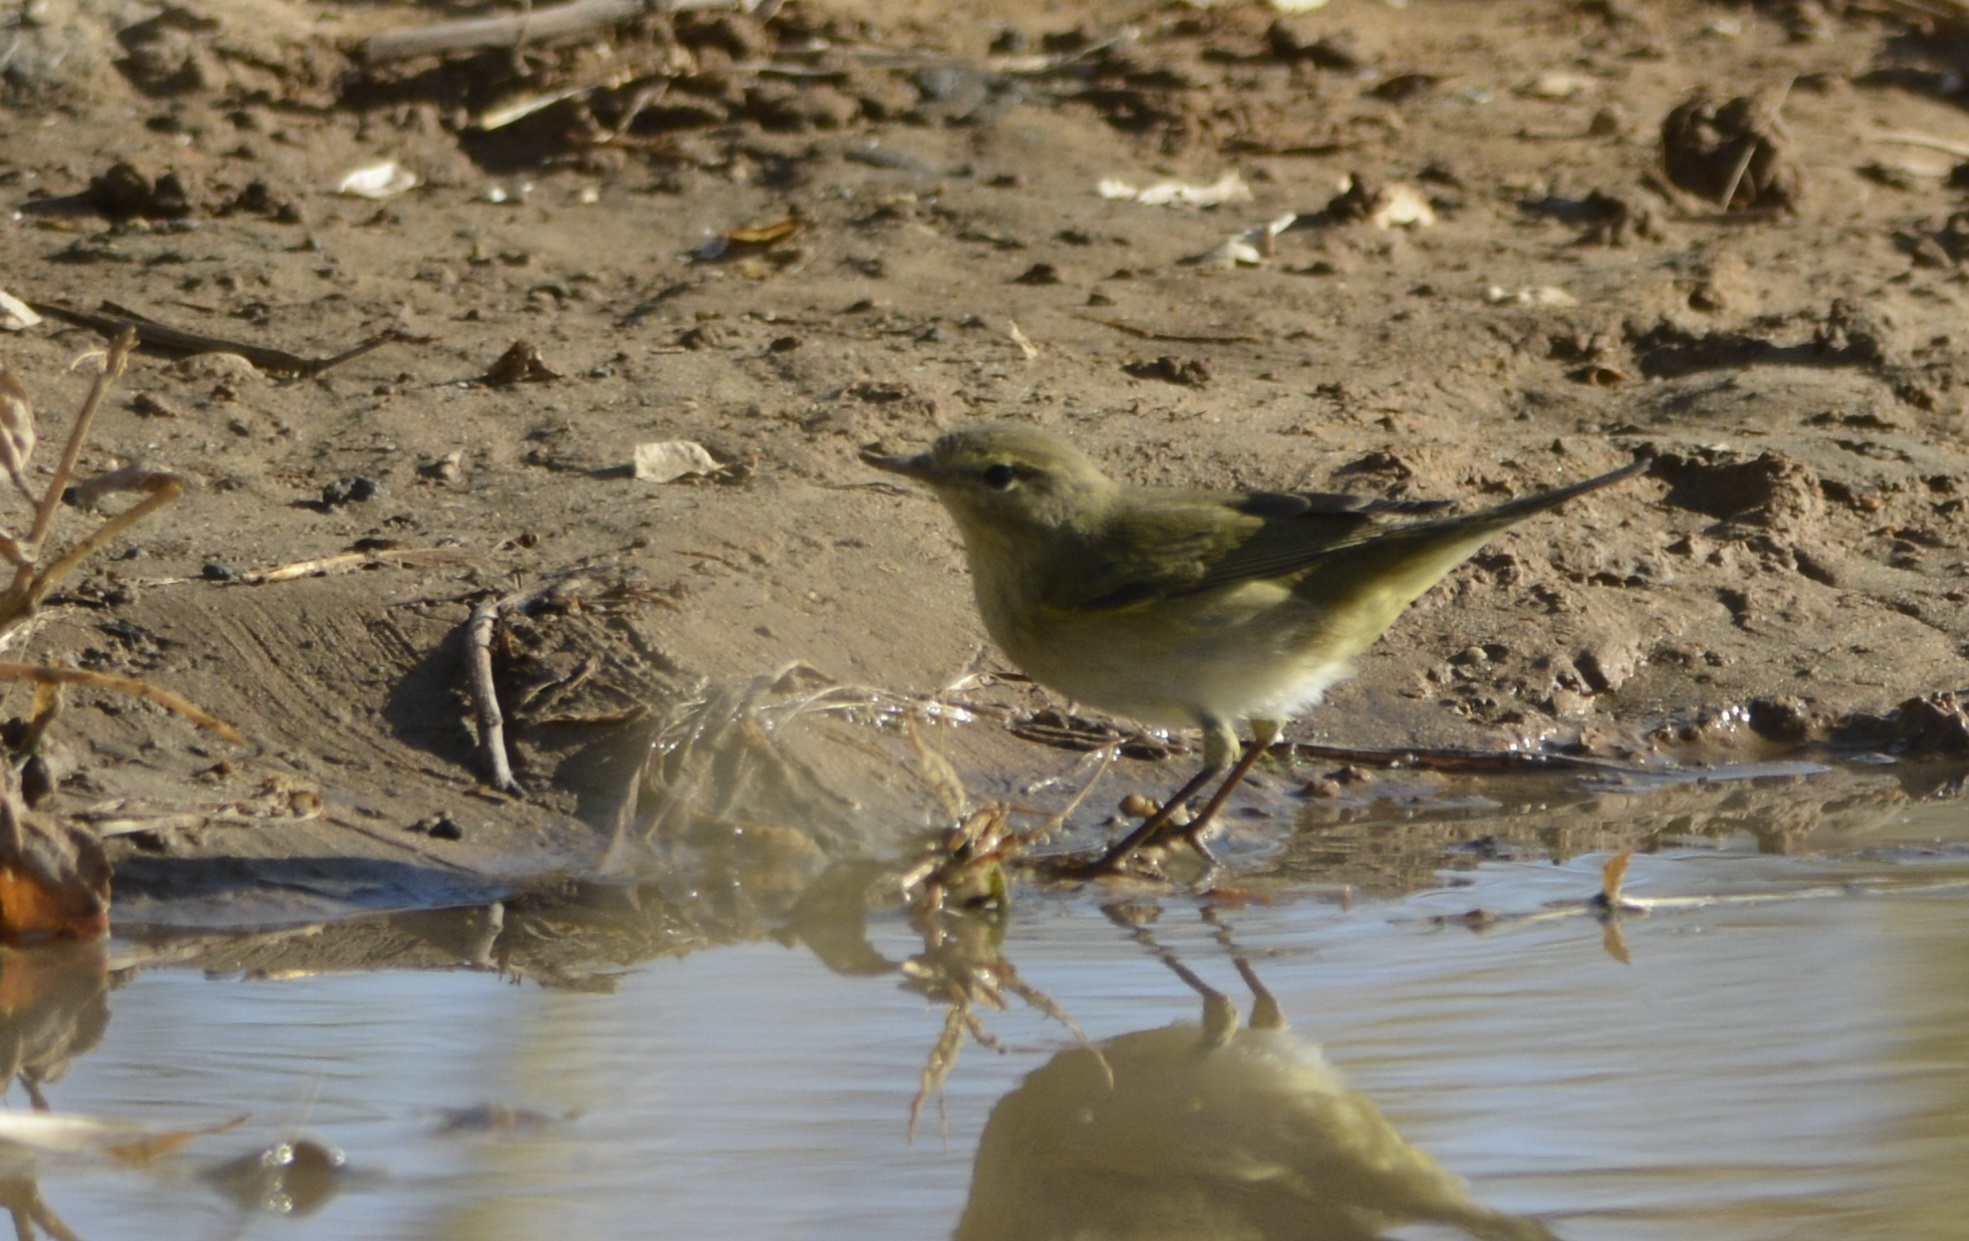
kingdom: Animalia
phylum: Chordata
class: Aves
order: Passeriformes
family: Phylloscopidae
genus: Phylloscopus
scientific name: Phylloscopus collybita
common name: Common chiffchaff
